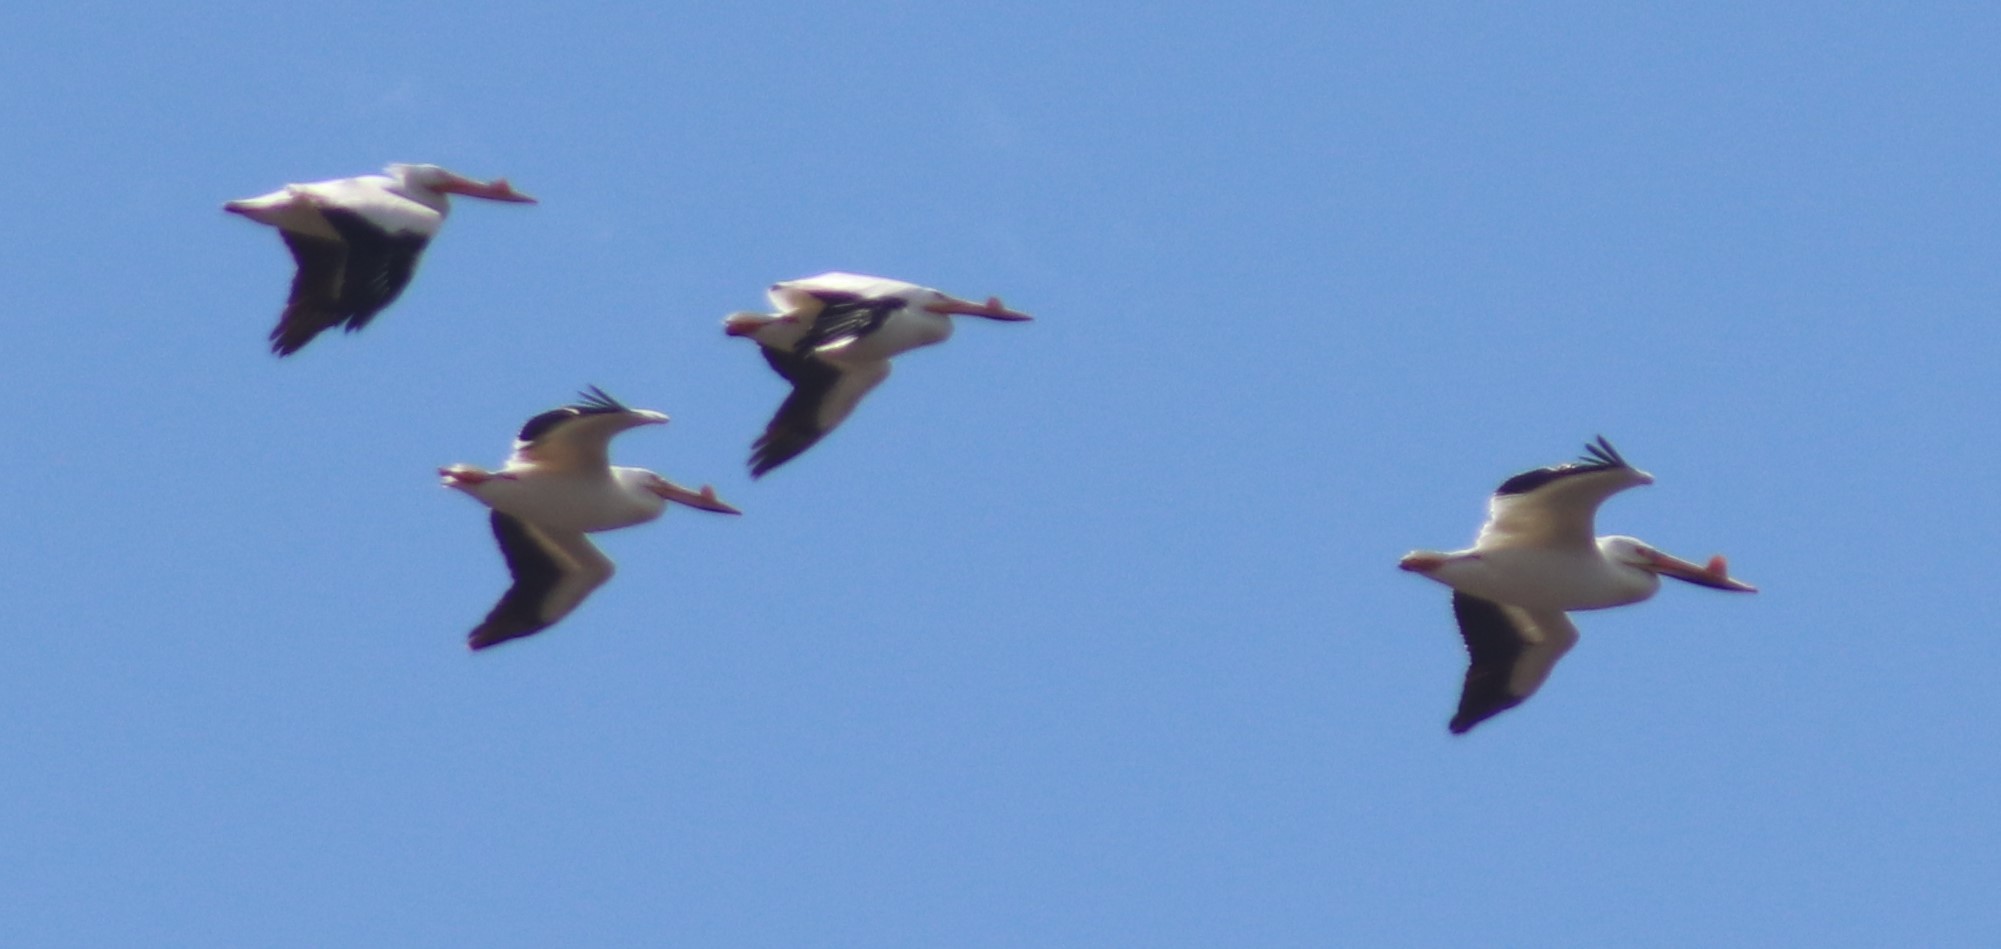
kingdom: Animalia
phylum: Chordata
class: Aves
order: Pelecaniformes
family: Pelecanidae
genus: Pelecanus
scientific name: Pelecanus erythrorhynchos
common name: American white pelican
